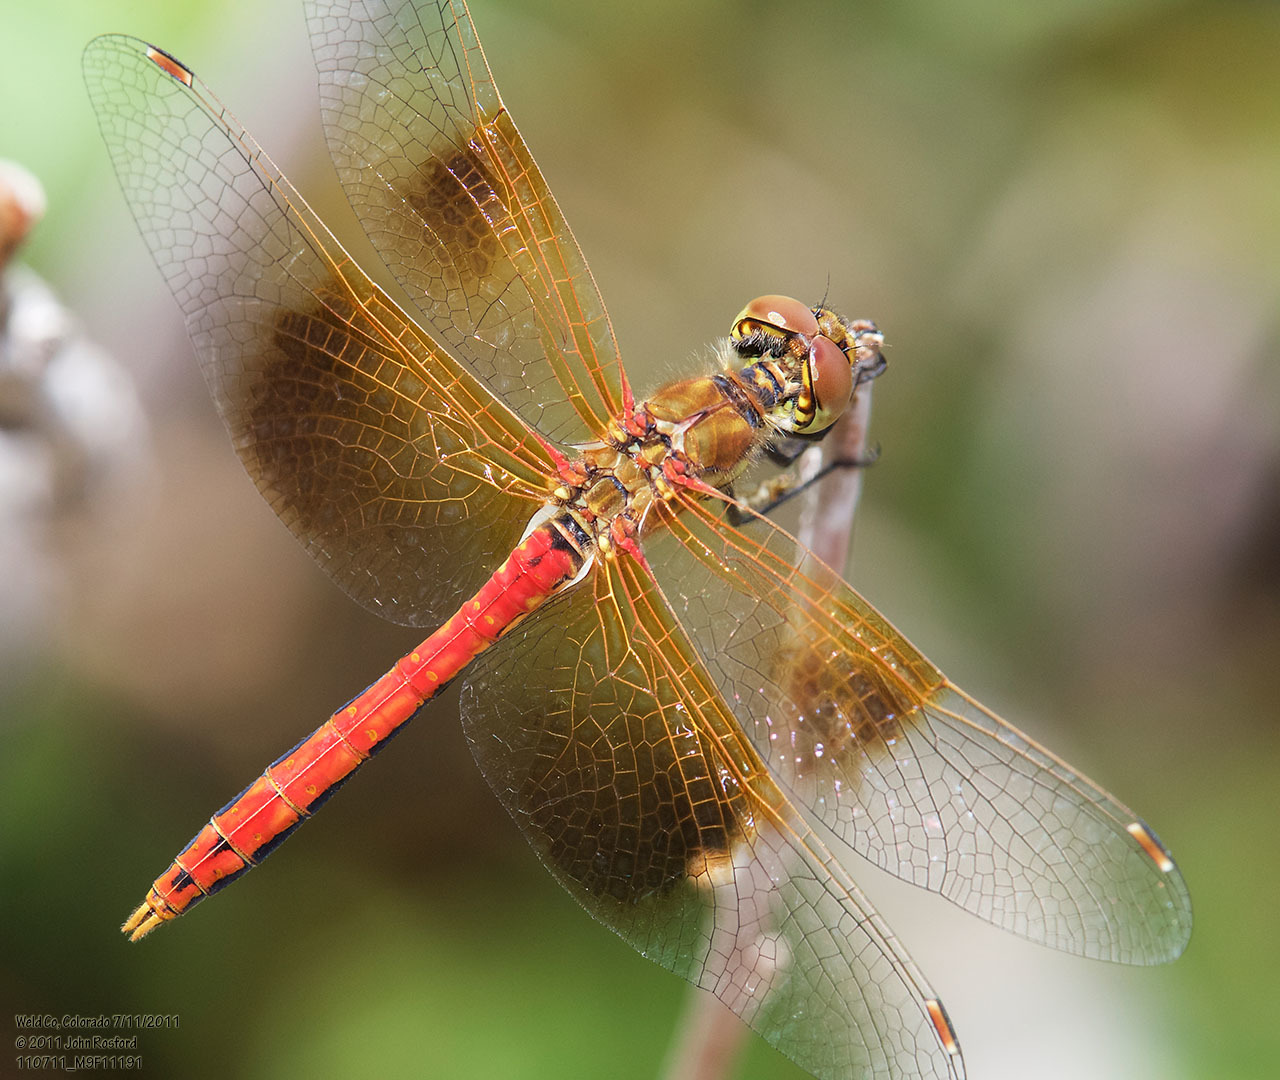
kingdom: Animalia
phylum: Arthropoda
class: Insecta
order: Odonata
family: Libellulidae
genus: Sympetrum
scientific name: Sympetrum semicinctum
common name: Band-winged meadowhawk
